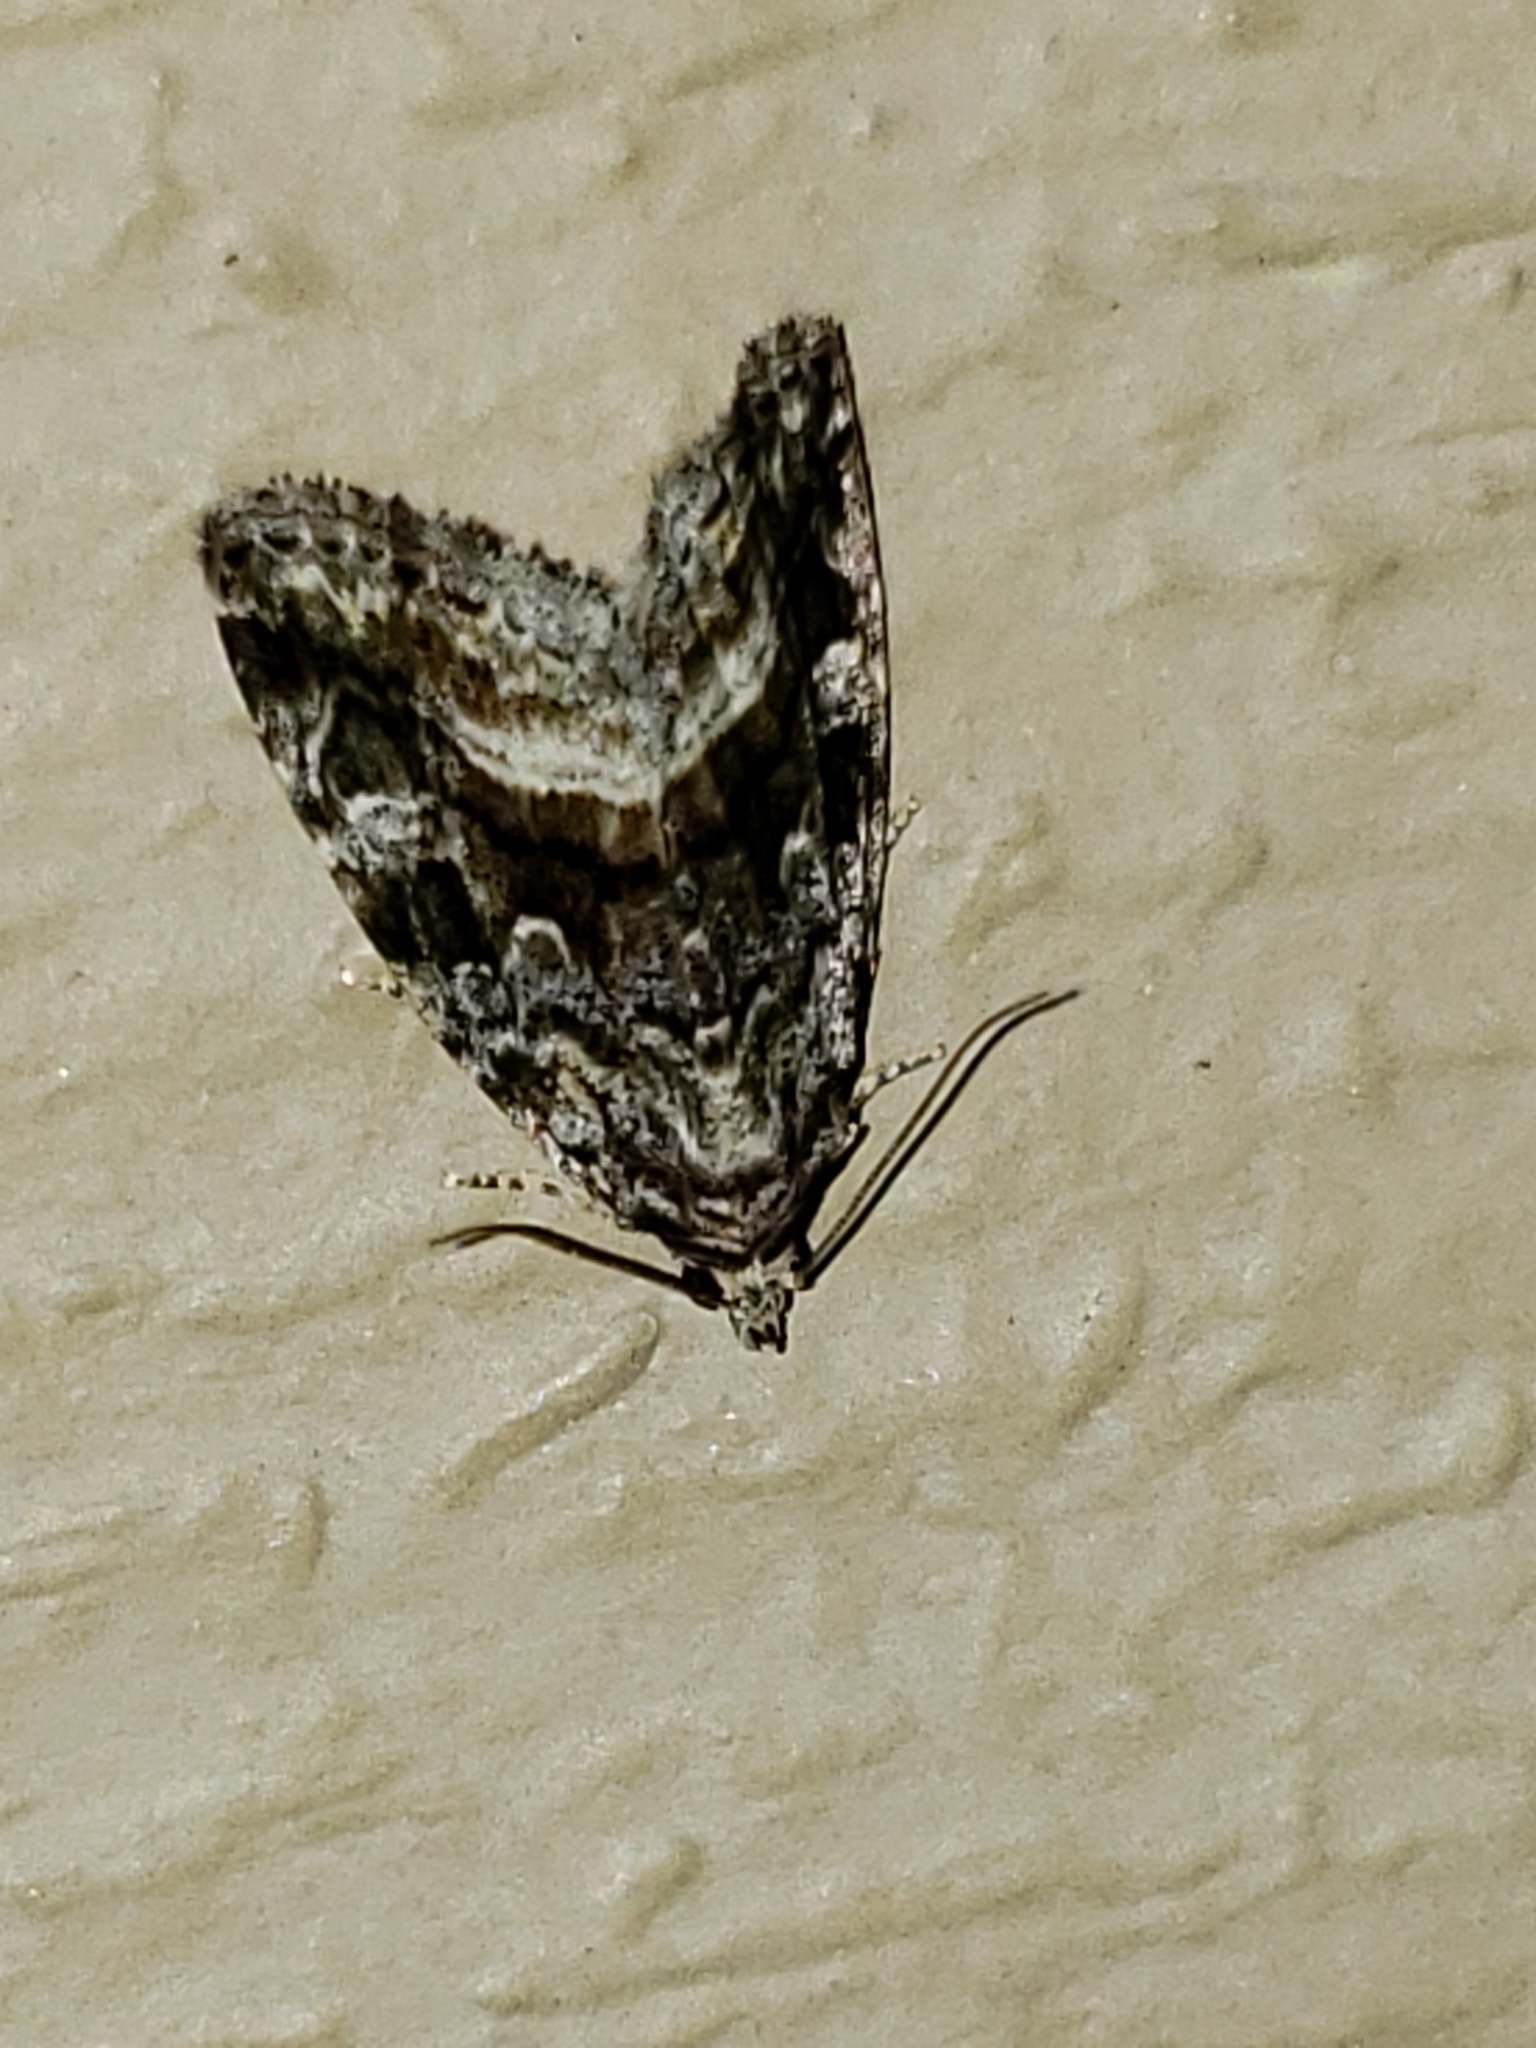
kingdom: Animalia
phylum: Arthropoda
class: Insecta
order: Lepidoptera
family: Noctuidae
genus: Protodeltote
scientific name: Protodeltote muscosula
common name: Large mossy glyph
